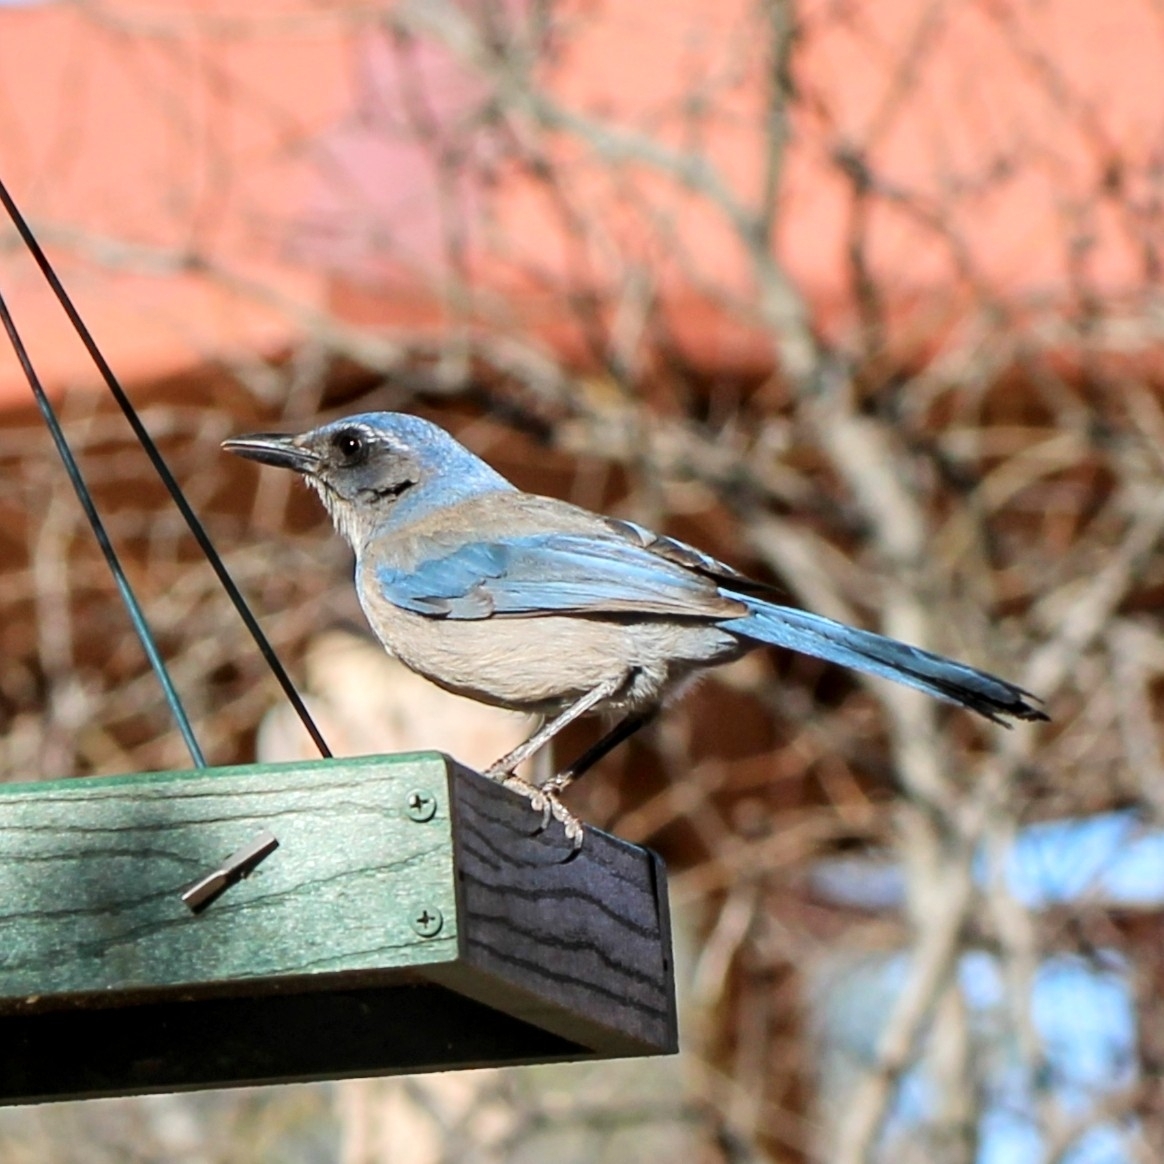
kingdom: Animalia
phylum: Chordata
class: Aves
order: Passeriformes
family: Corvidae
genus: Aphelocoma
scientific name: Aphelocoma woodhouseii
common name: Woodhouse's scrub-jay
